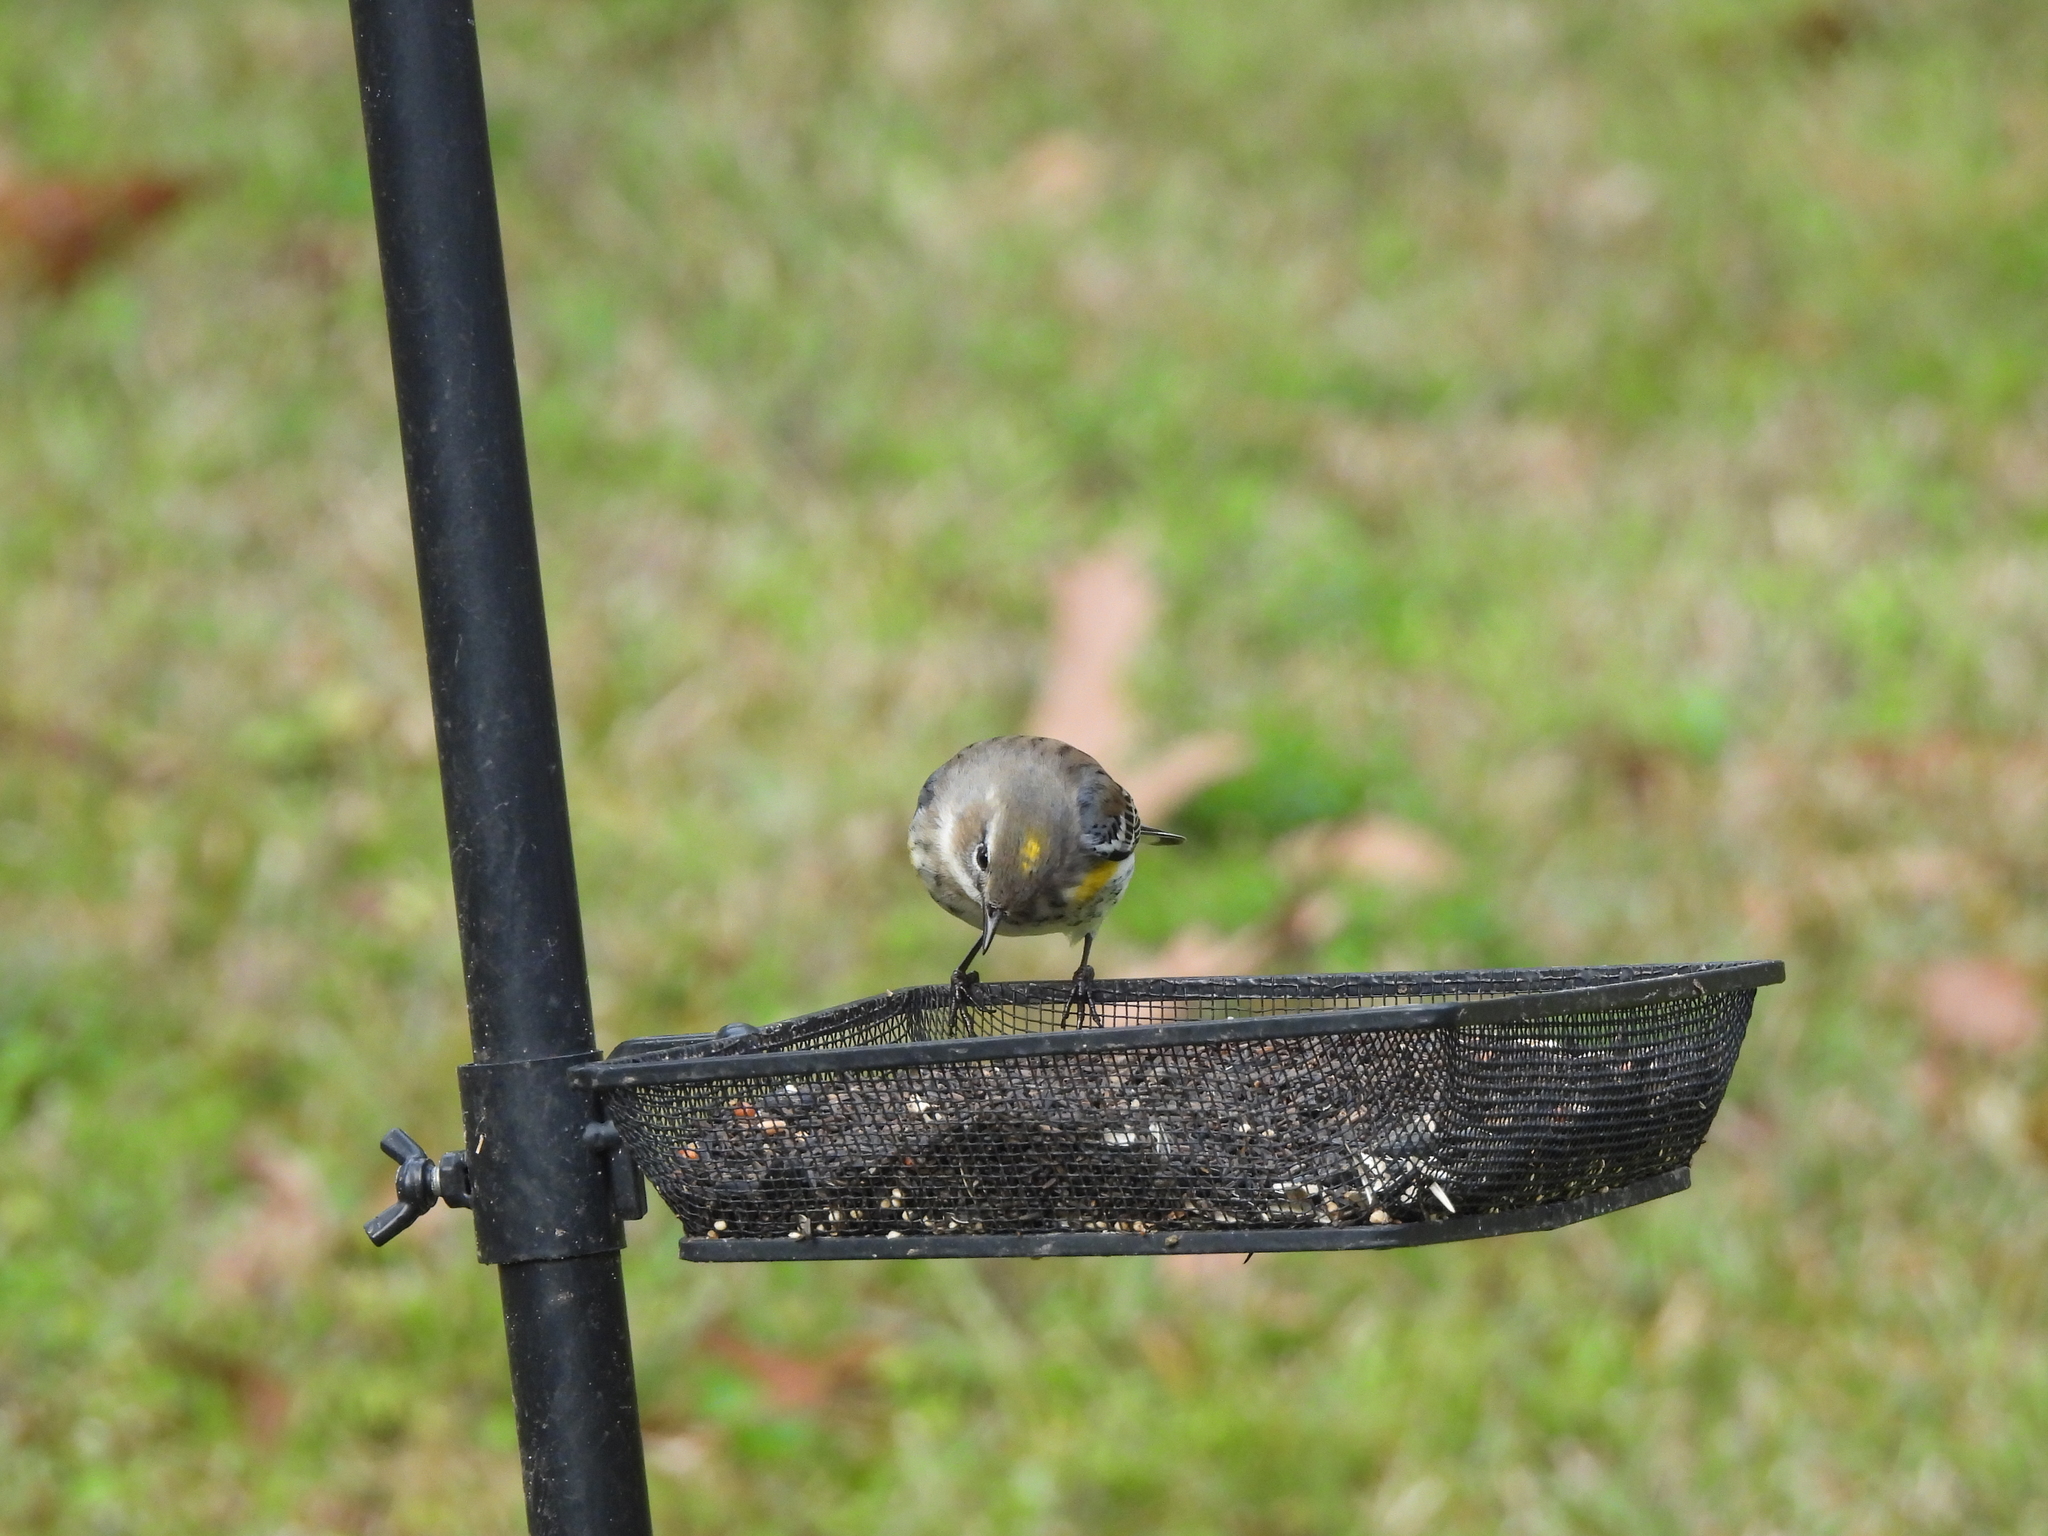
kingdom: Animalia
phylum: Chordata
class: Aves
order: Passeriformes
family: Parulidae
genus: Setophaga
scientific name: Setophaga coronata
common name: Myrtle warbler
